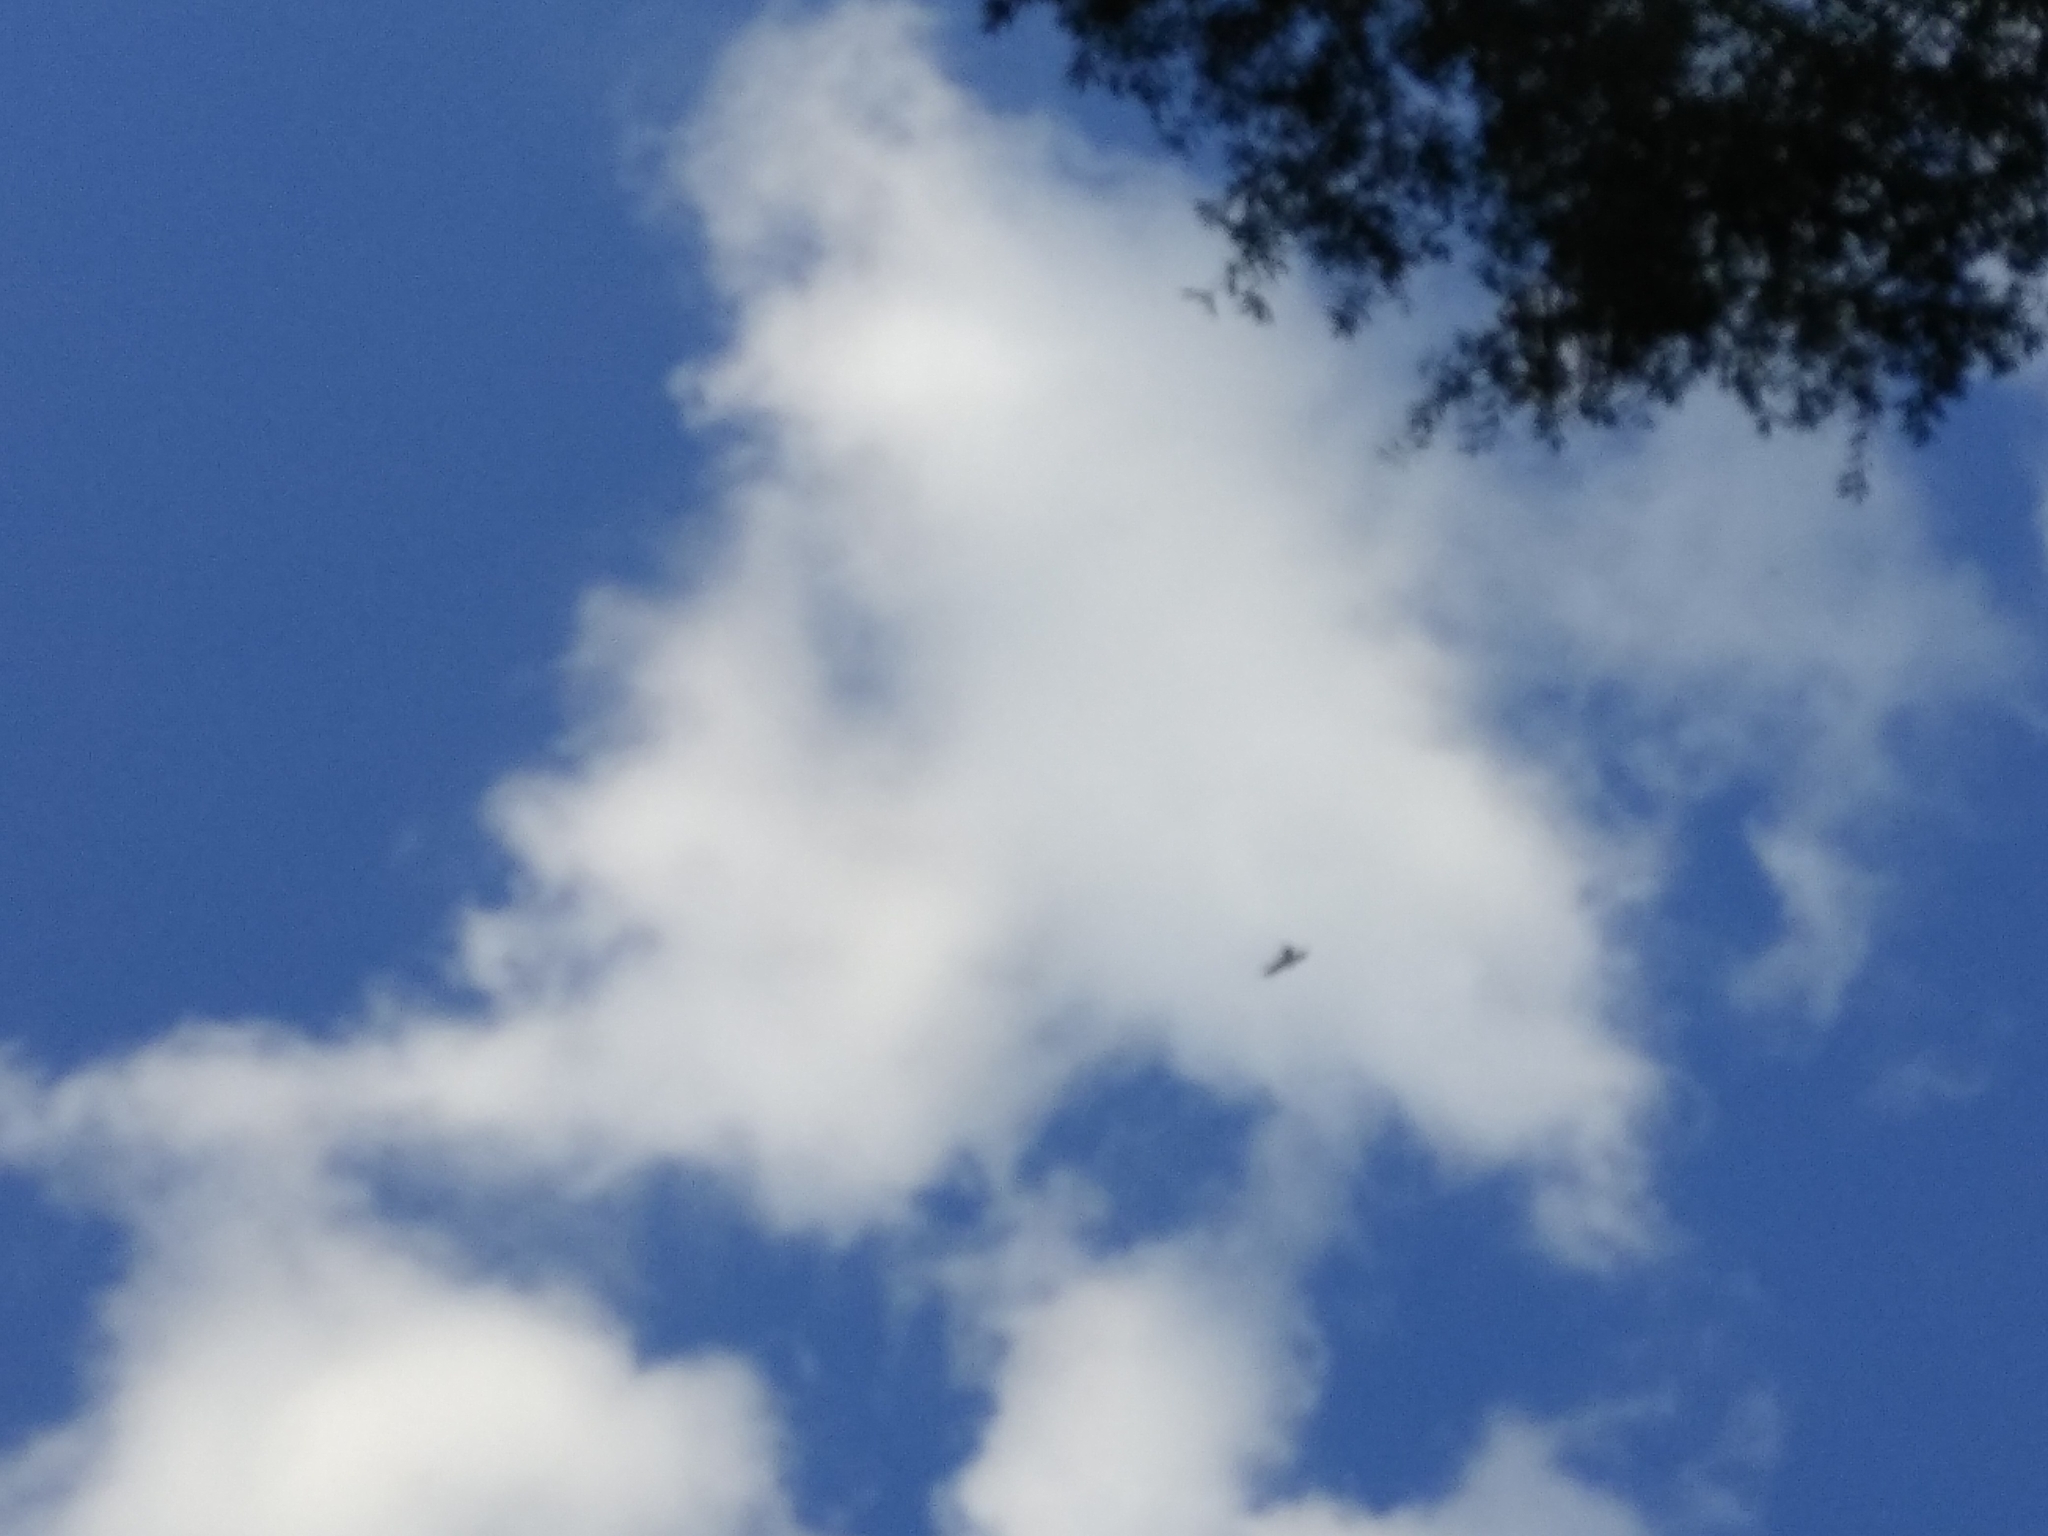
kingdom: Animalia
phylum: Chordata
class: Aves
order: Accipitriformes
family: Accipitridae
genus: Ictinia
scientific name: Ictinia mississippiensis
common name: Mississippi kite
